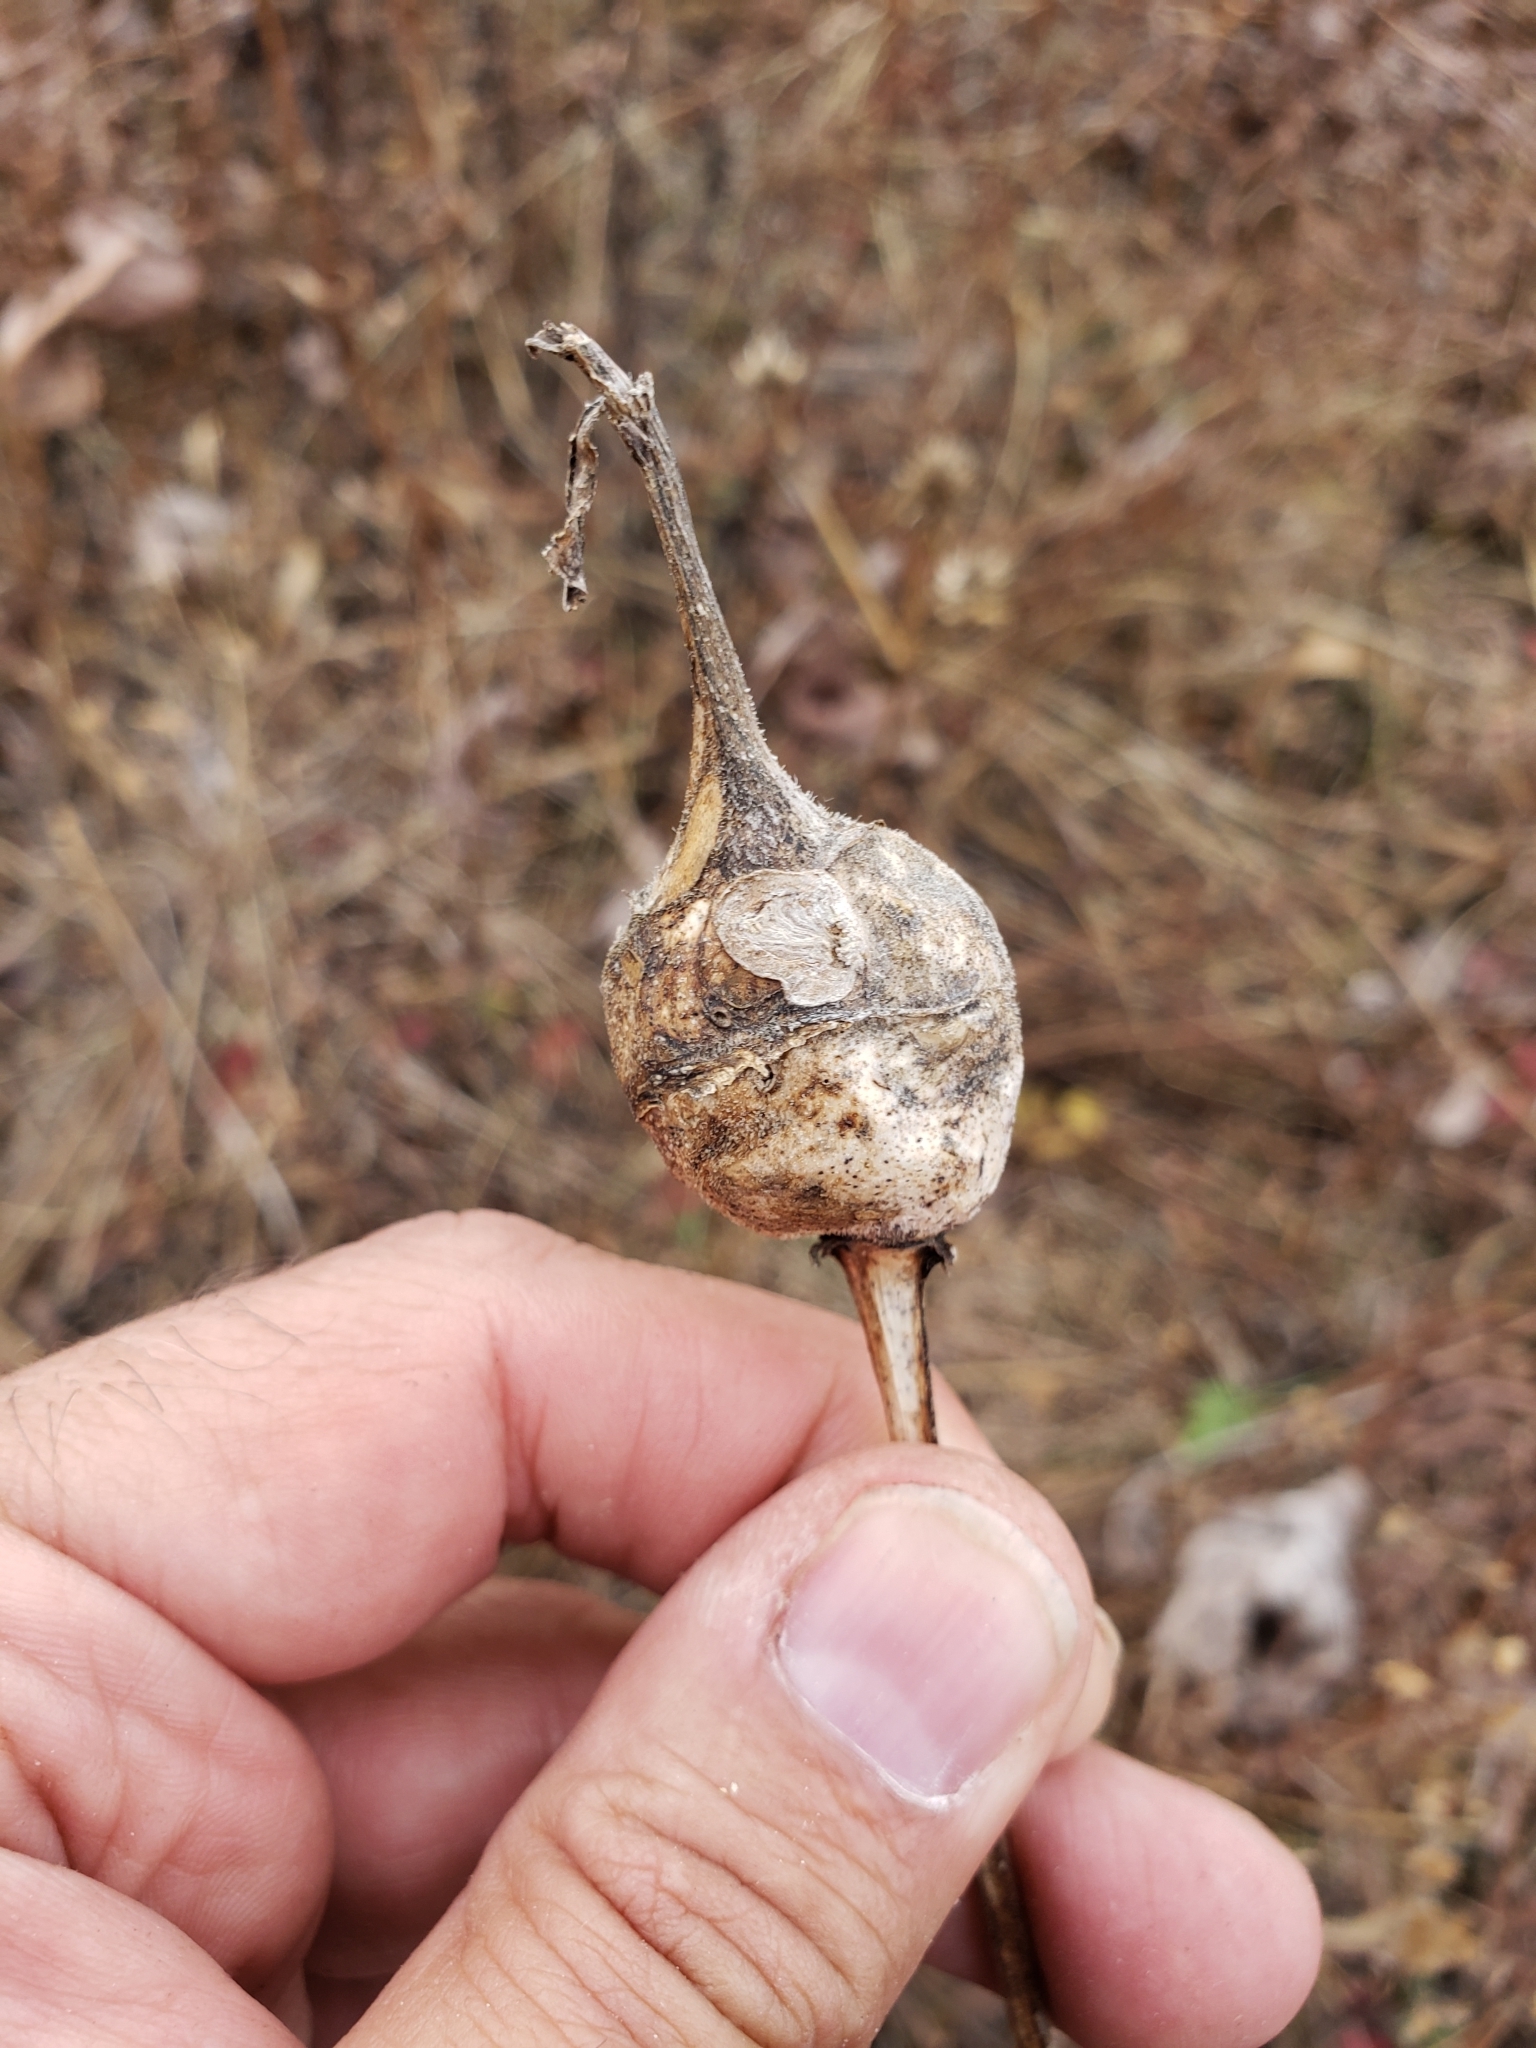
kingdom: Animalia
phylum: Arthropoda
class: Insecta
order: Hymenoptera
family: Cynipidae
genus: Antistrophus
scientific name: Antistrophus silphii
